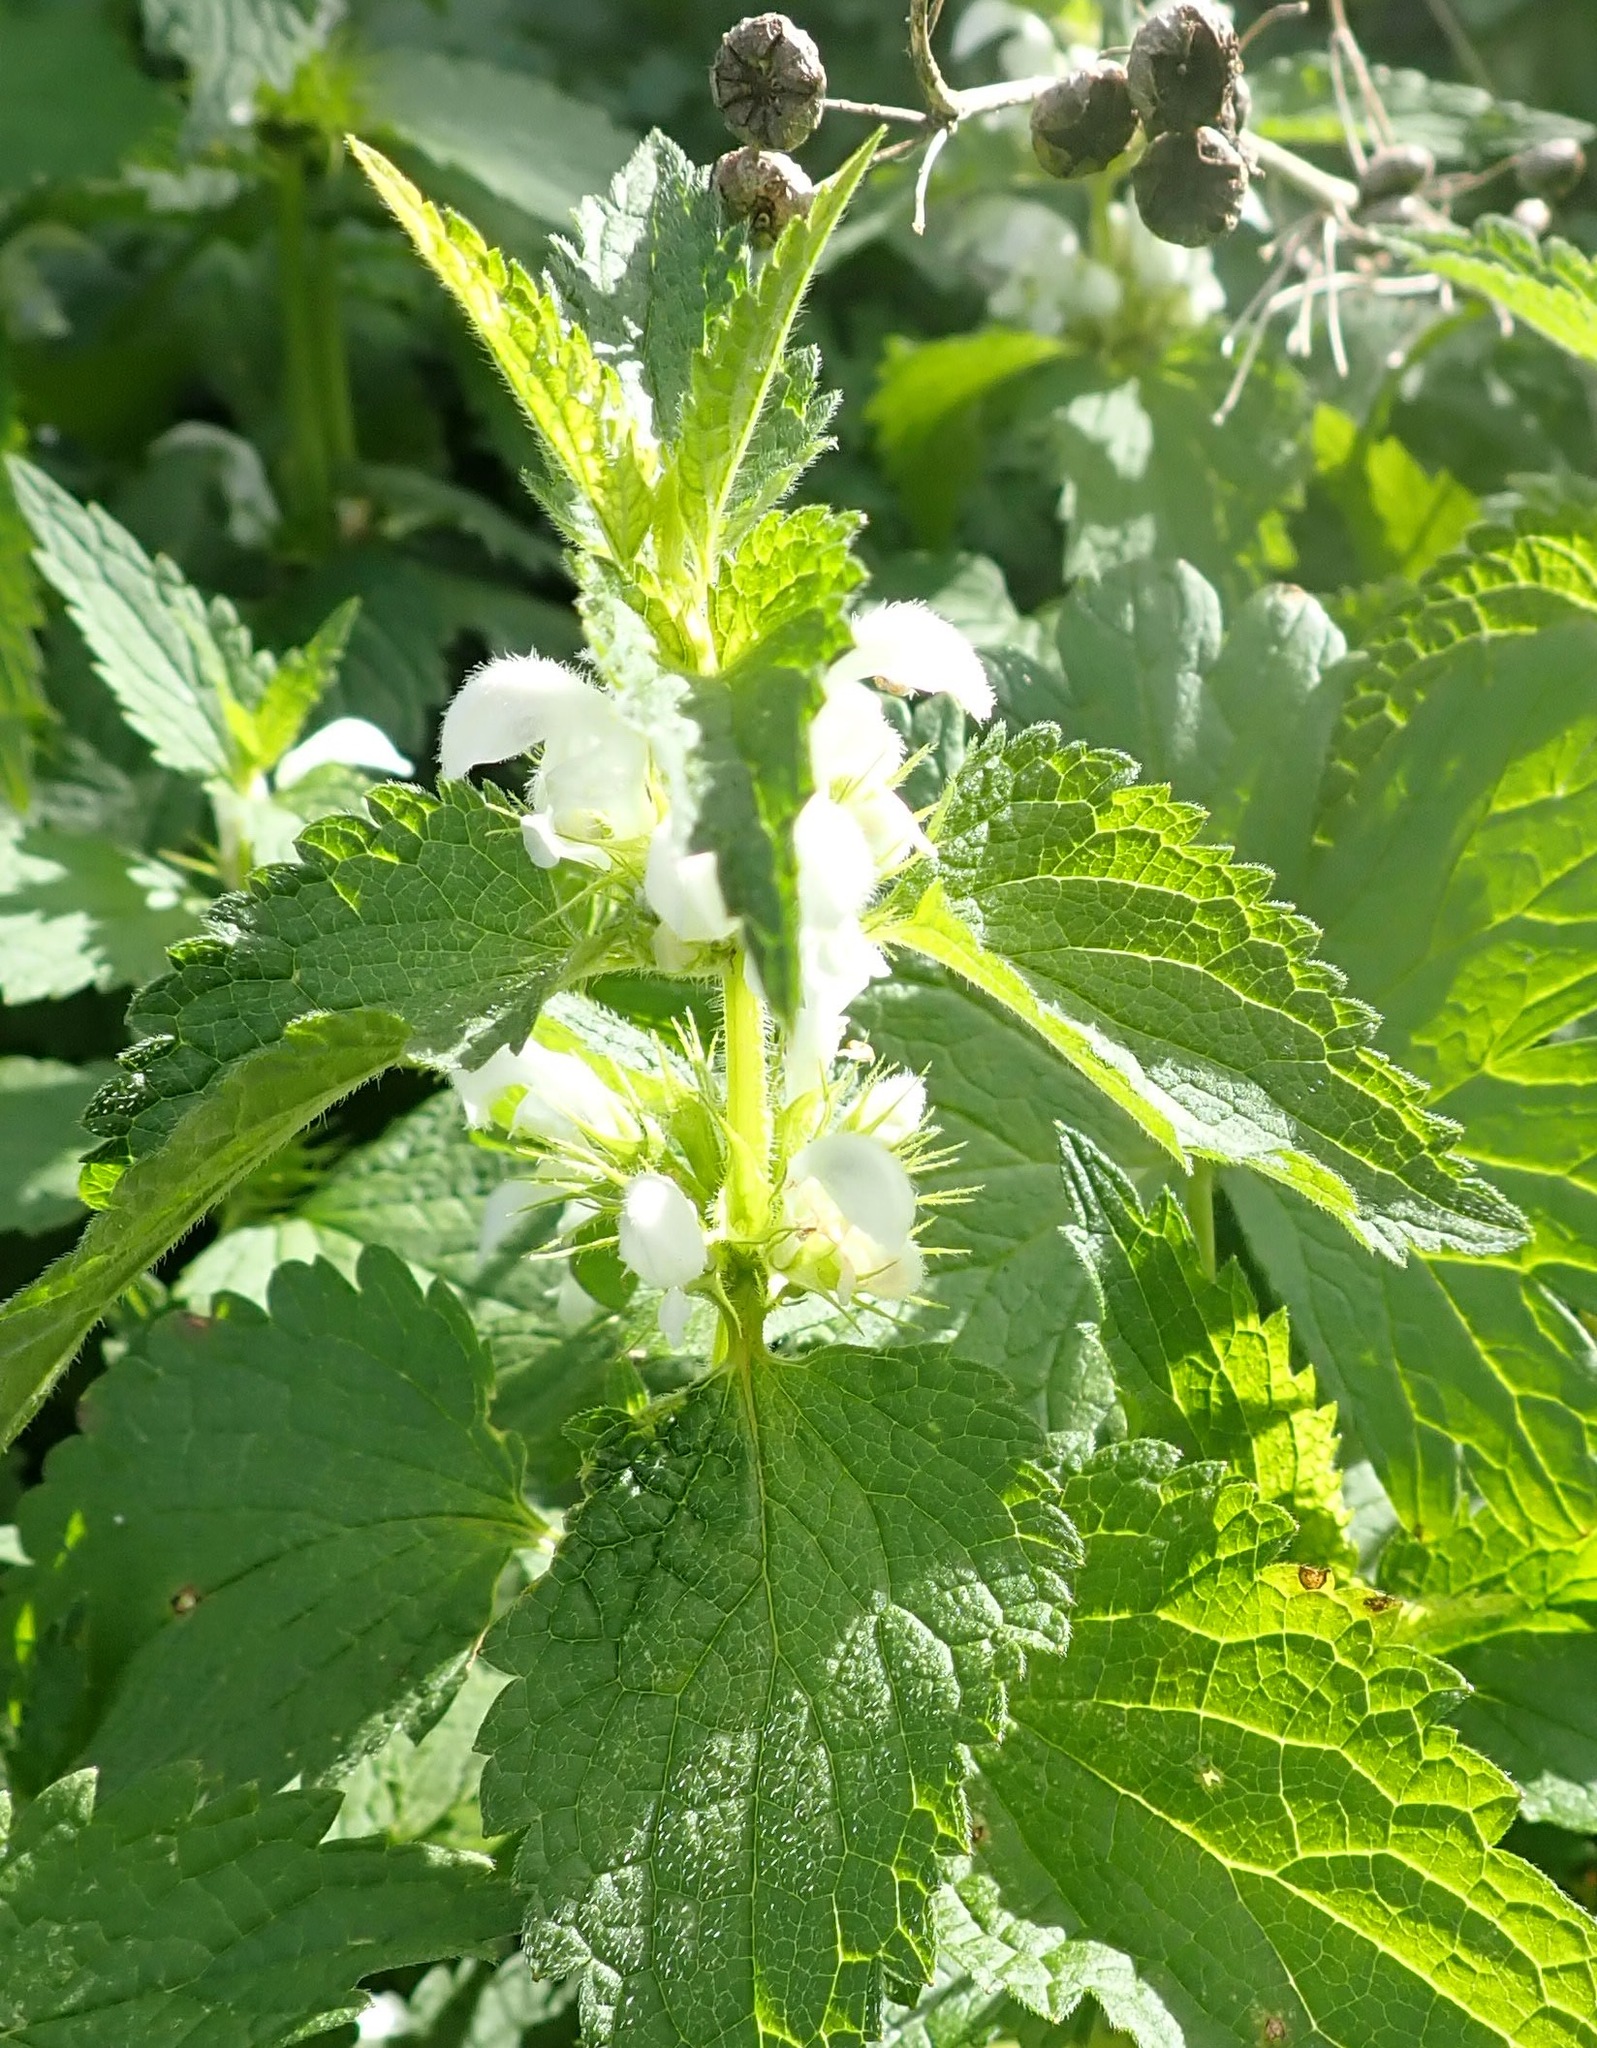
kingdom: Plantae
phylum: Tracheophyta
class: Magnoliopsida
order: Lamiales
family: Lamiaceae
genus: Lamium
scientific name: Lamium album
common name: White dead-nettle
